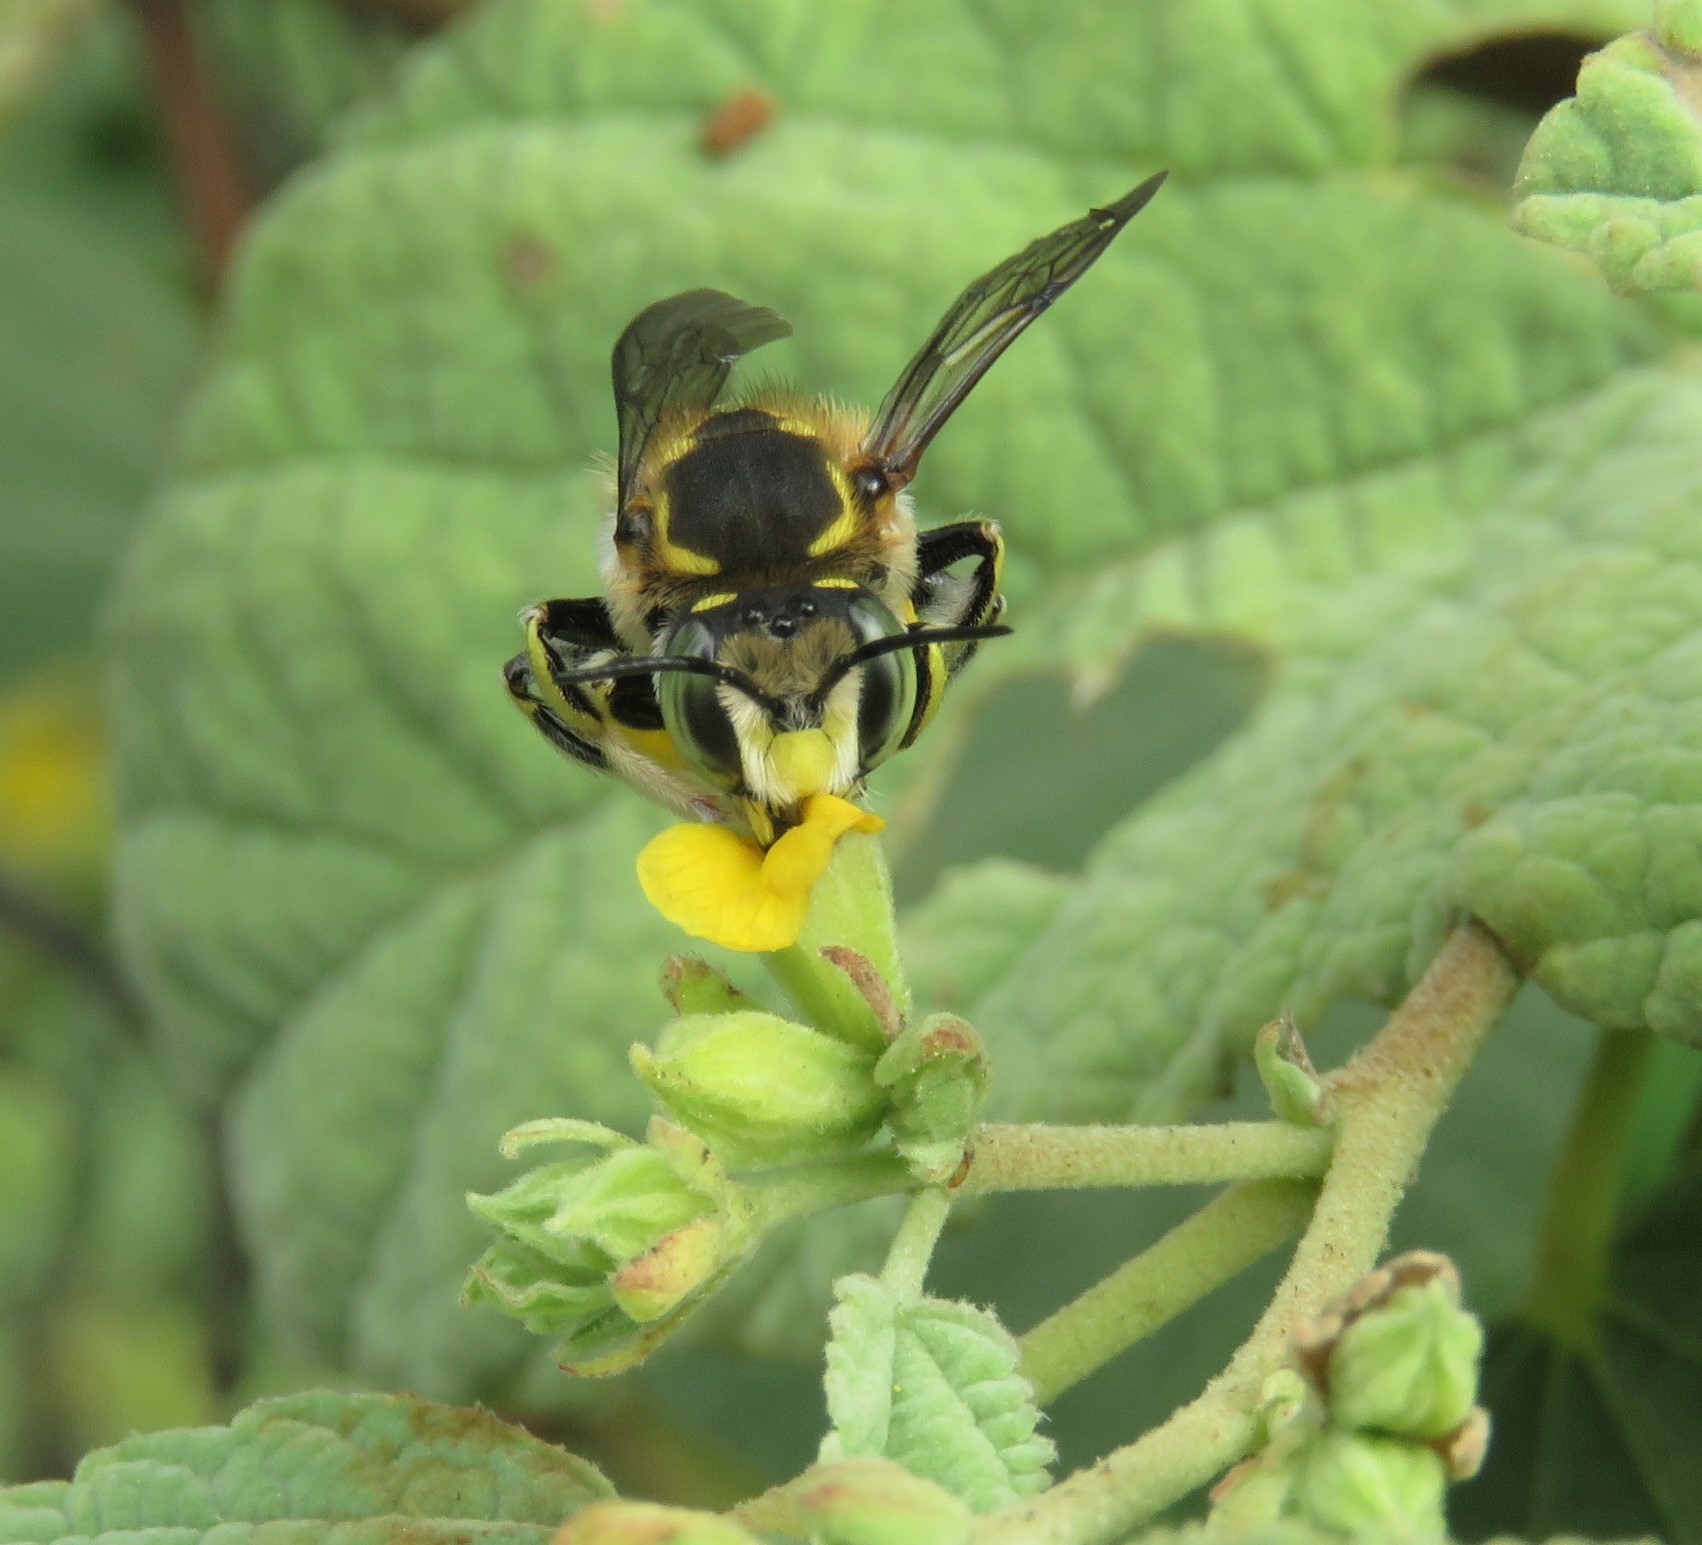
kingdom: Animalia
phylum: Arthropoda
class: Insecta
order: Hymenoptera
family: Megachilidae
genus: Anthidium
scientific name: Anthidium vigintiduopunctatum
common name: Dwarf bee of floreana
